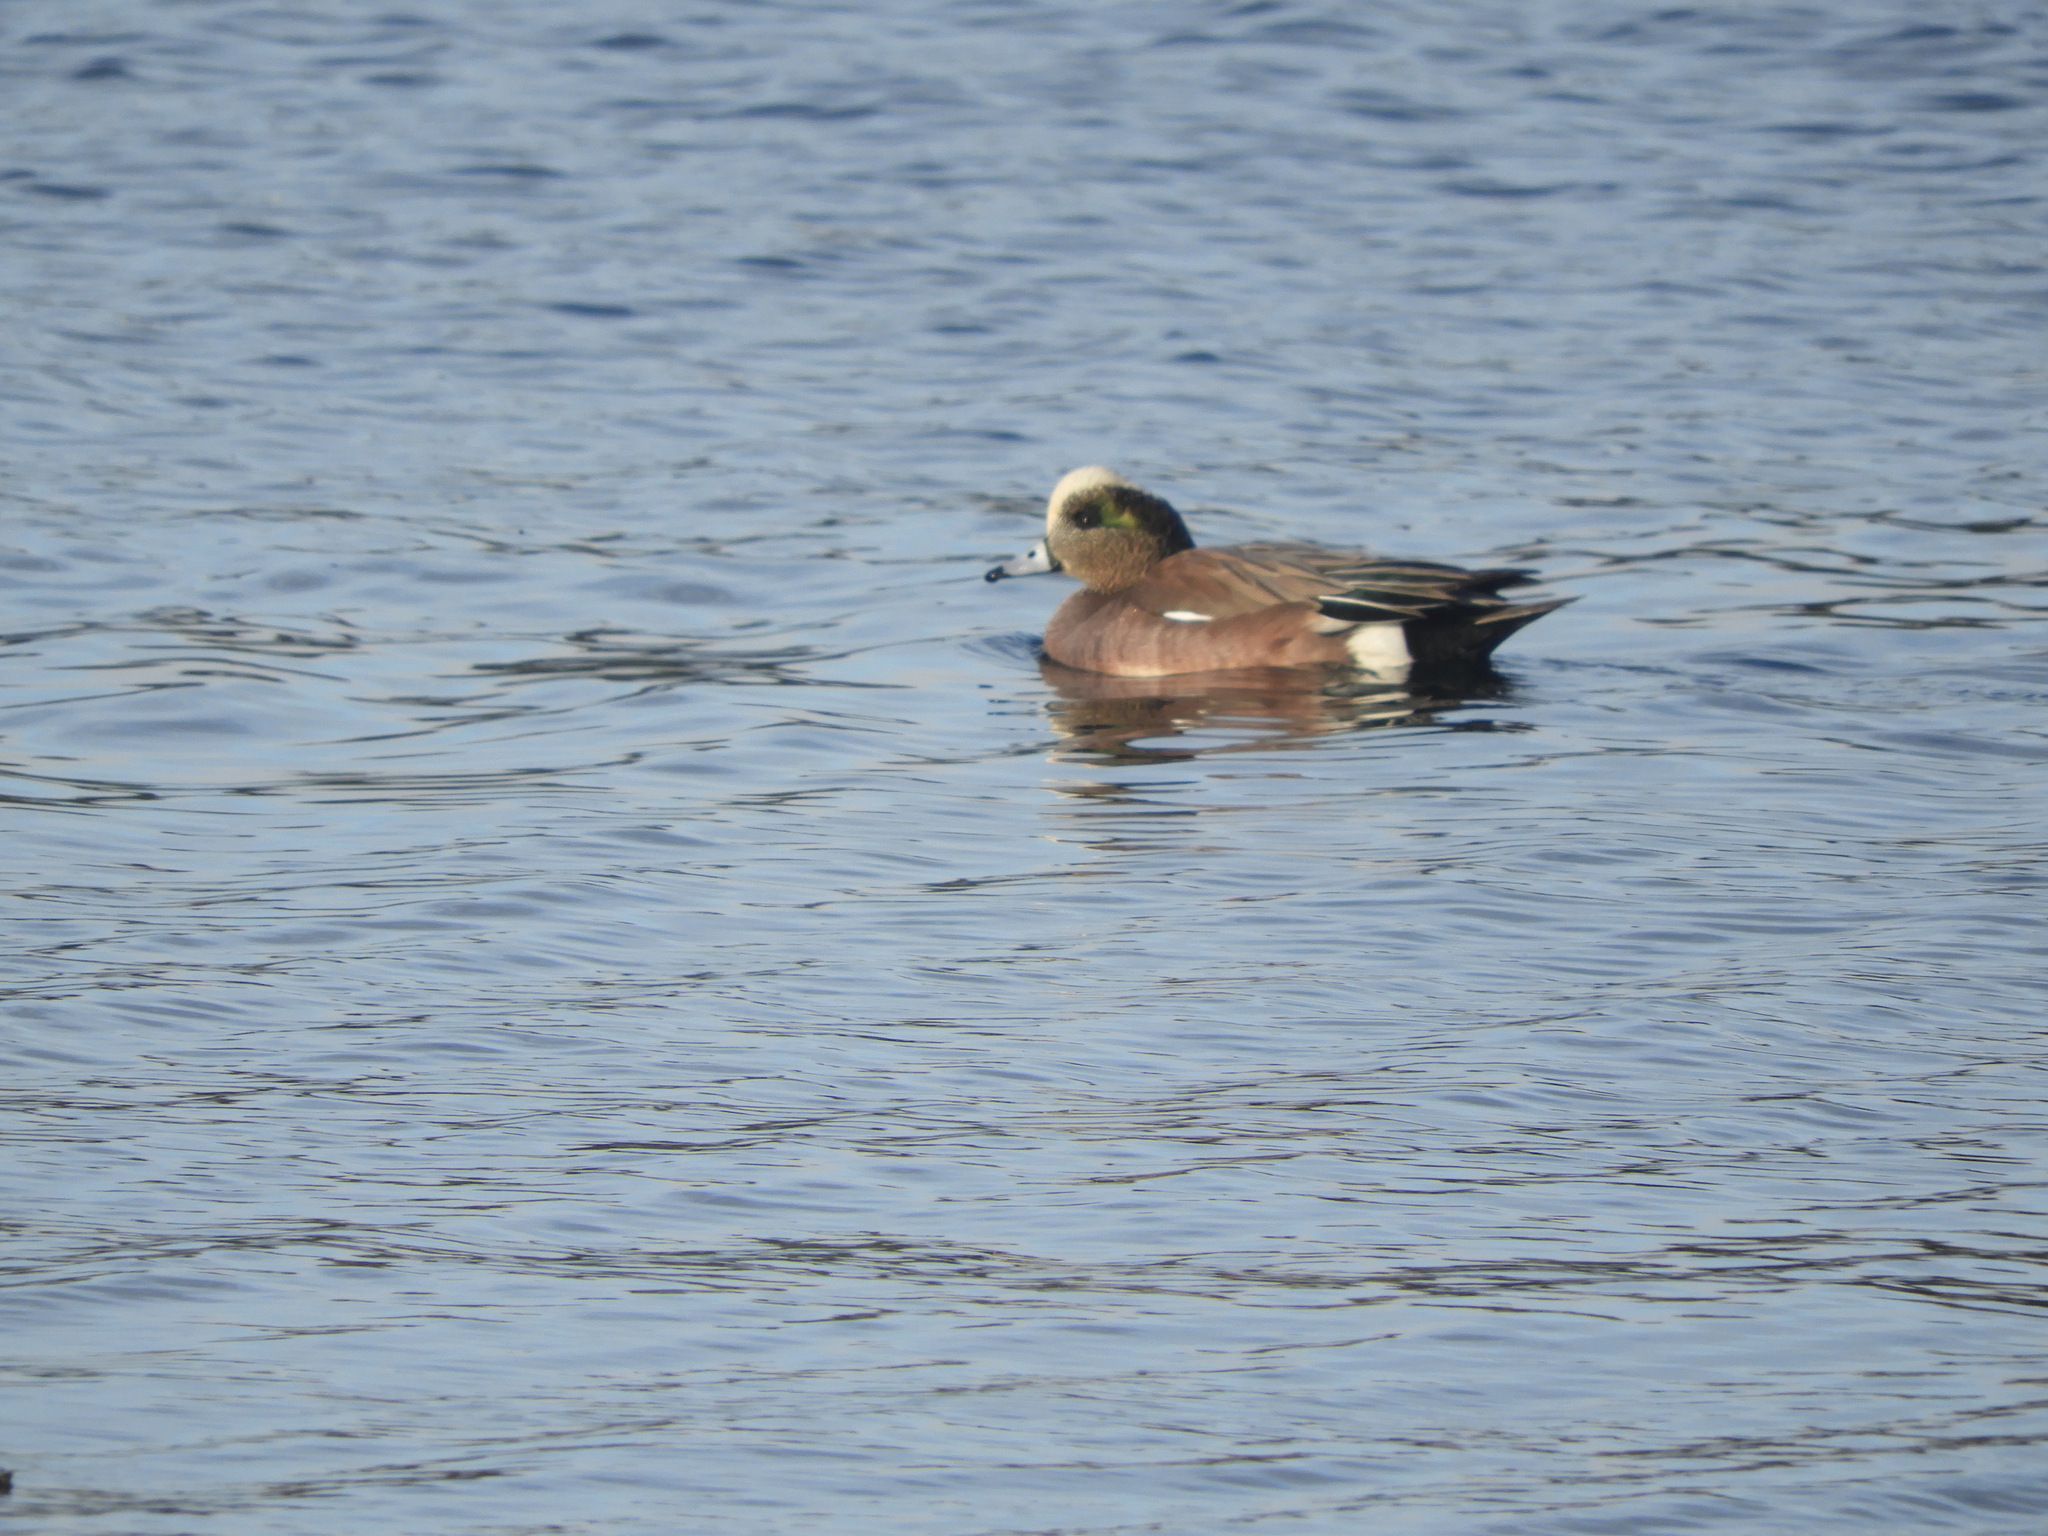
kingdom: Animalia
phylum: Chordata
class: Aves
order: Anseriformes
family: Anatidae
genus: Mareca
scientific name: Mareca americana
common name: American wigeon
